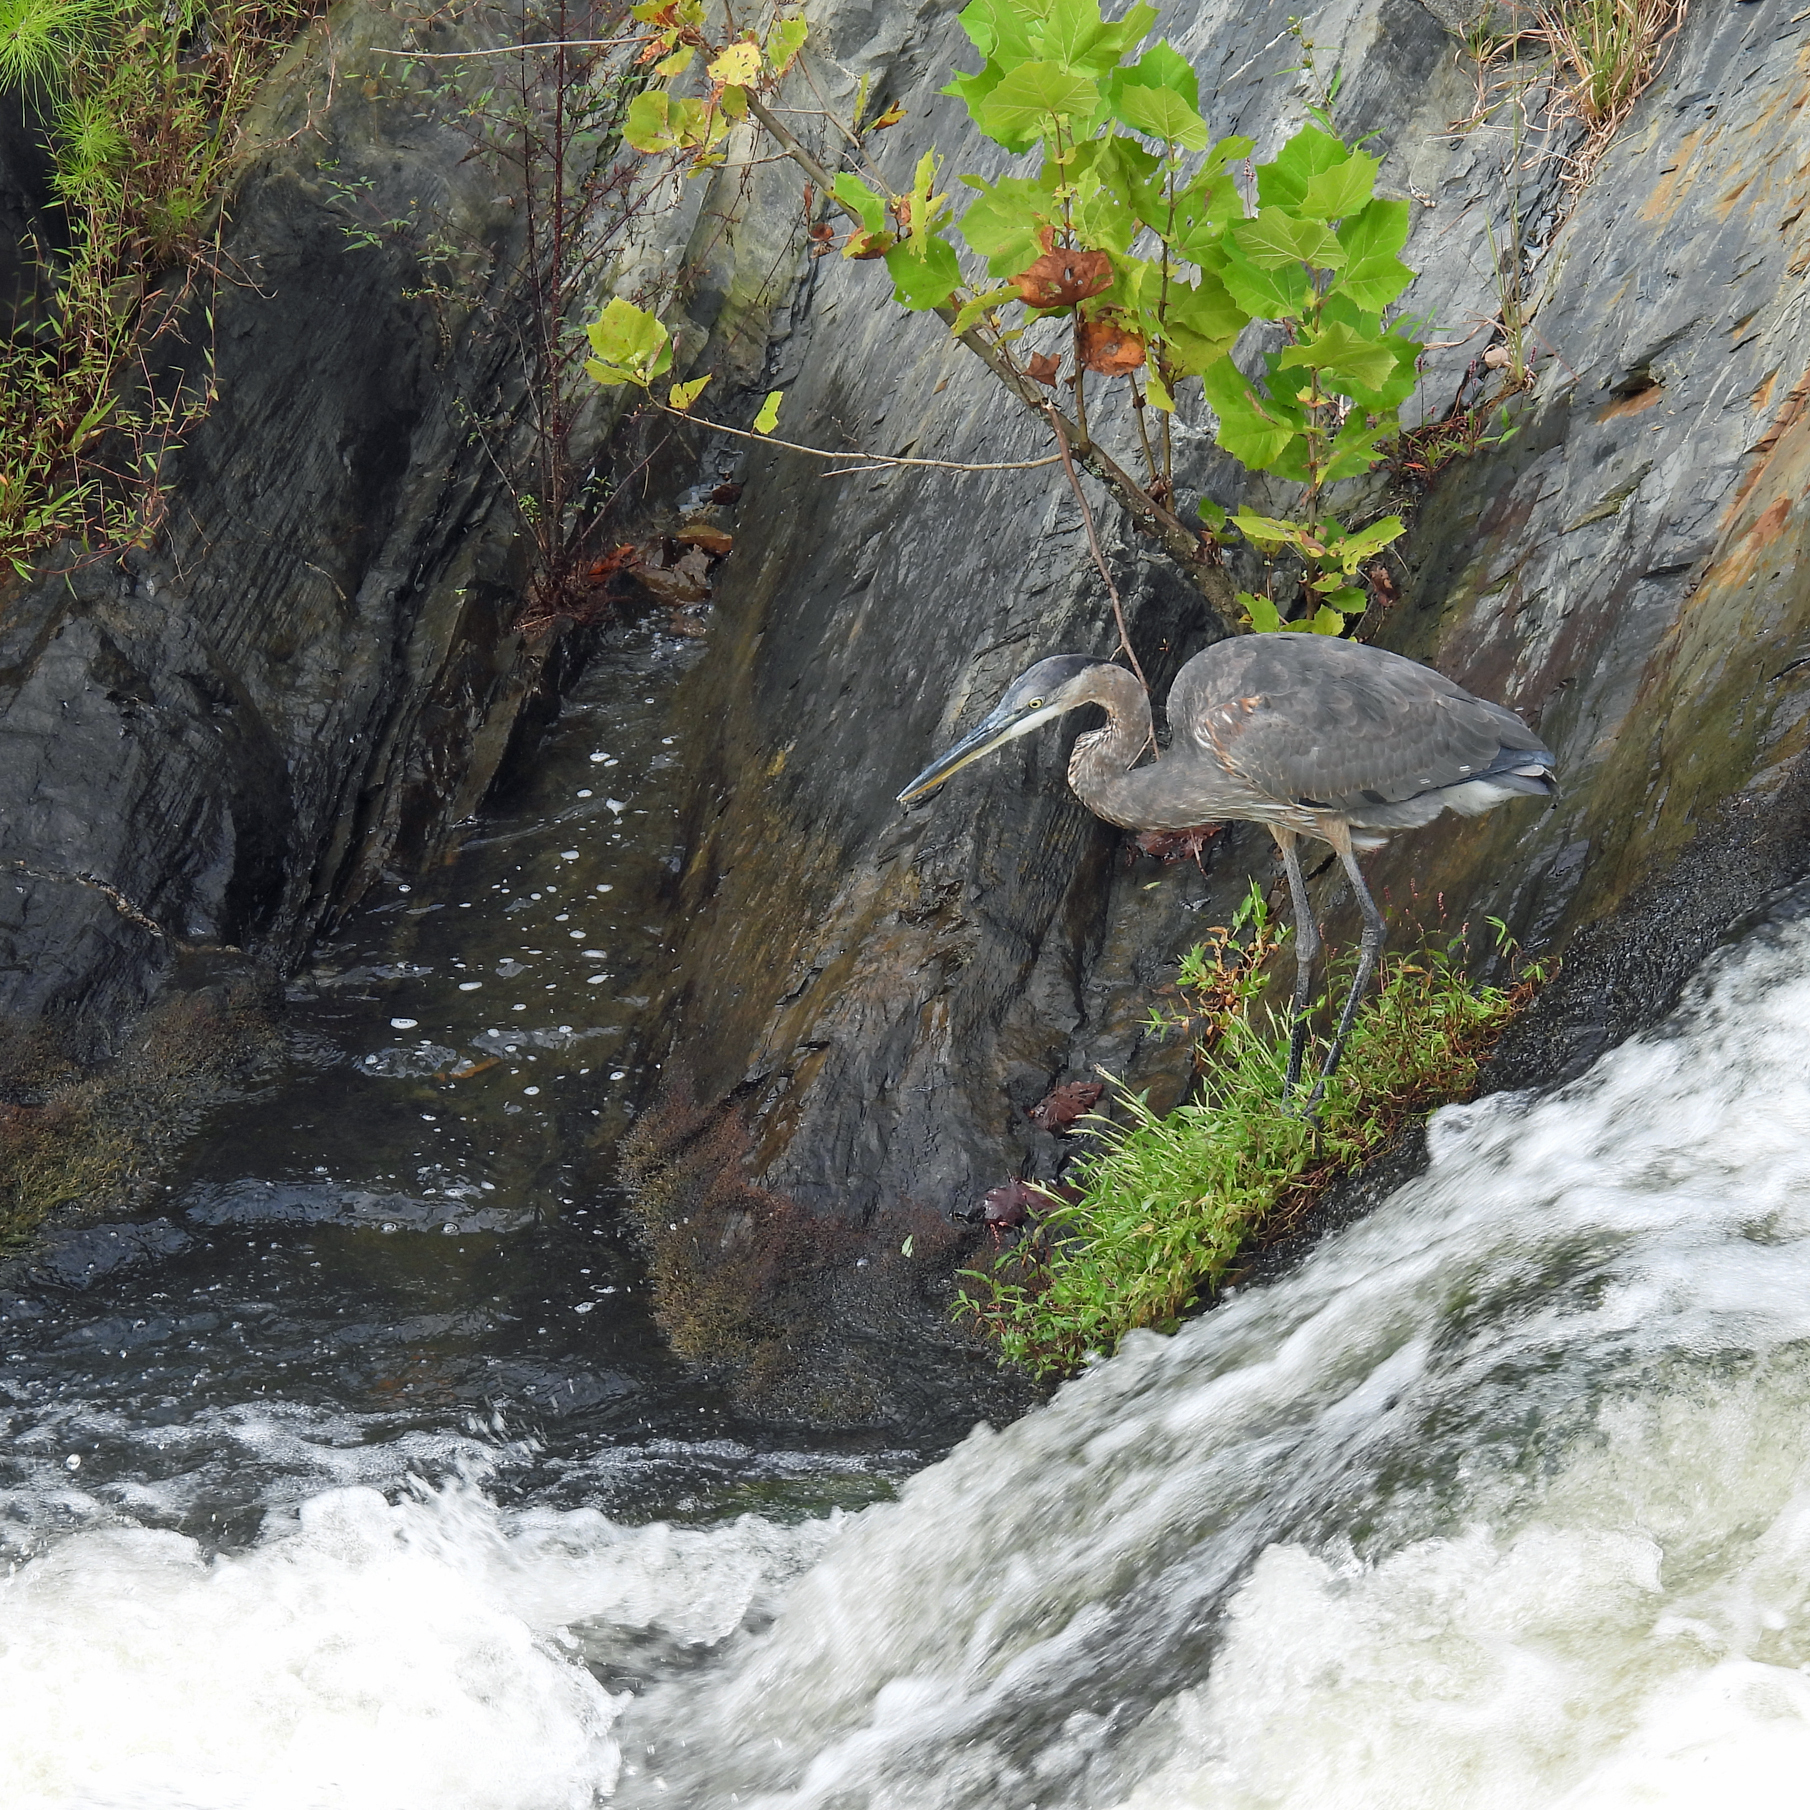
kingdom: Animalia
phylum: Chordata
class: Aves
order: Pelecaniformes
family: Ardeidae
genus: Ardea
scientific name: Ardea herodias
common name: Great blue heron
